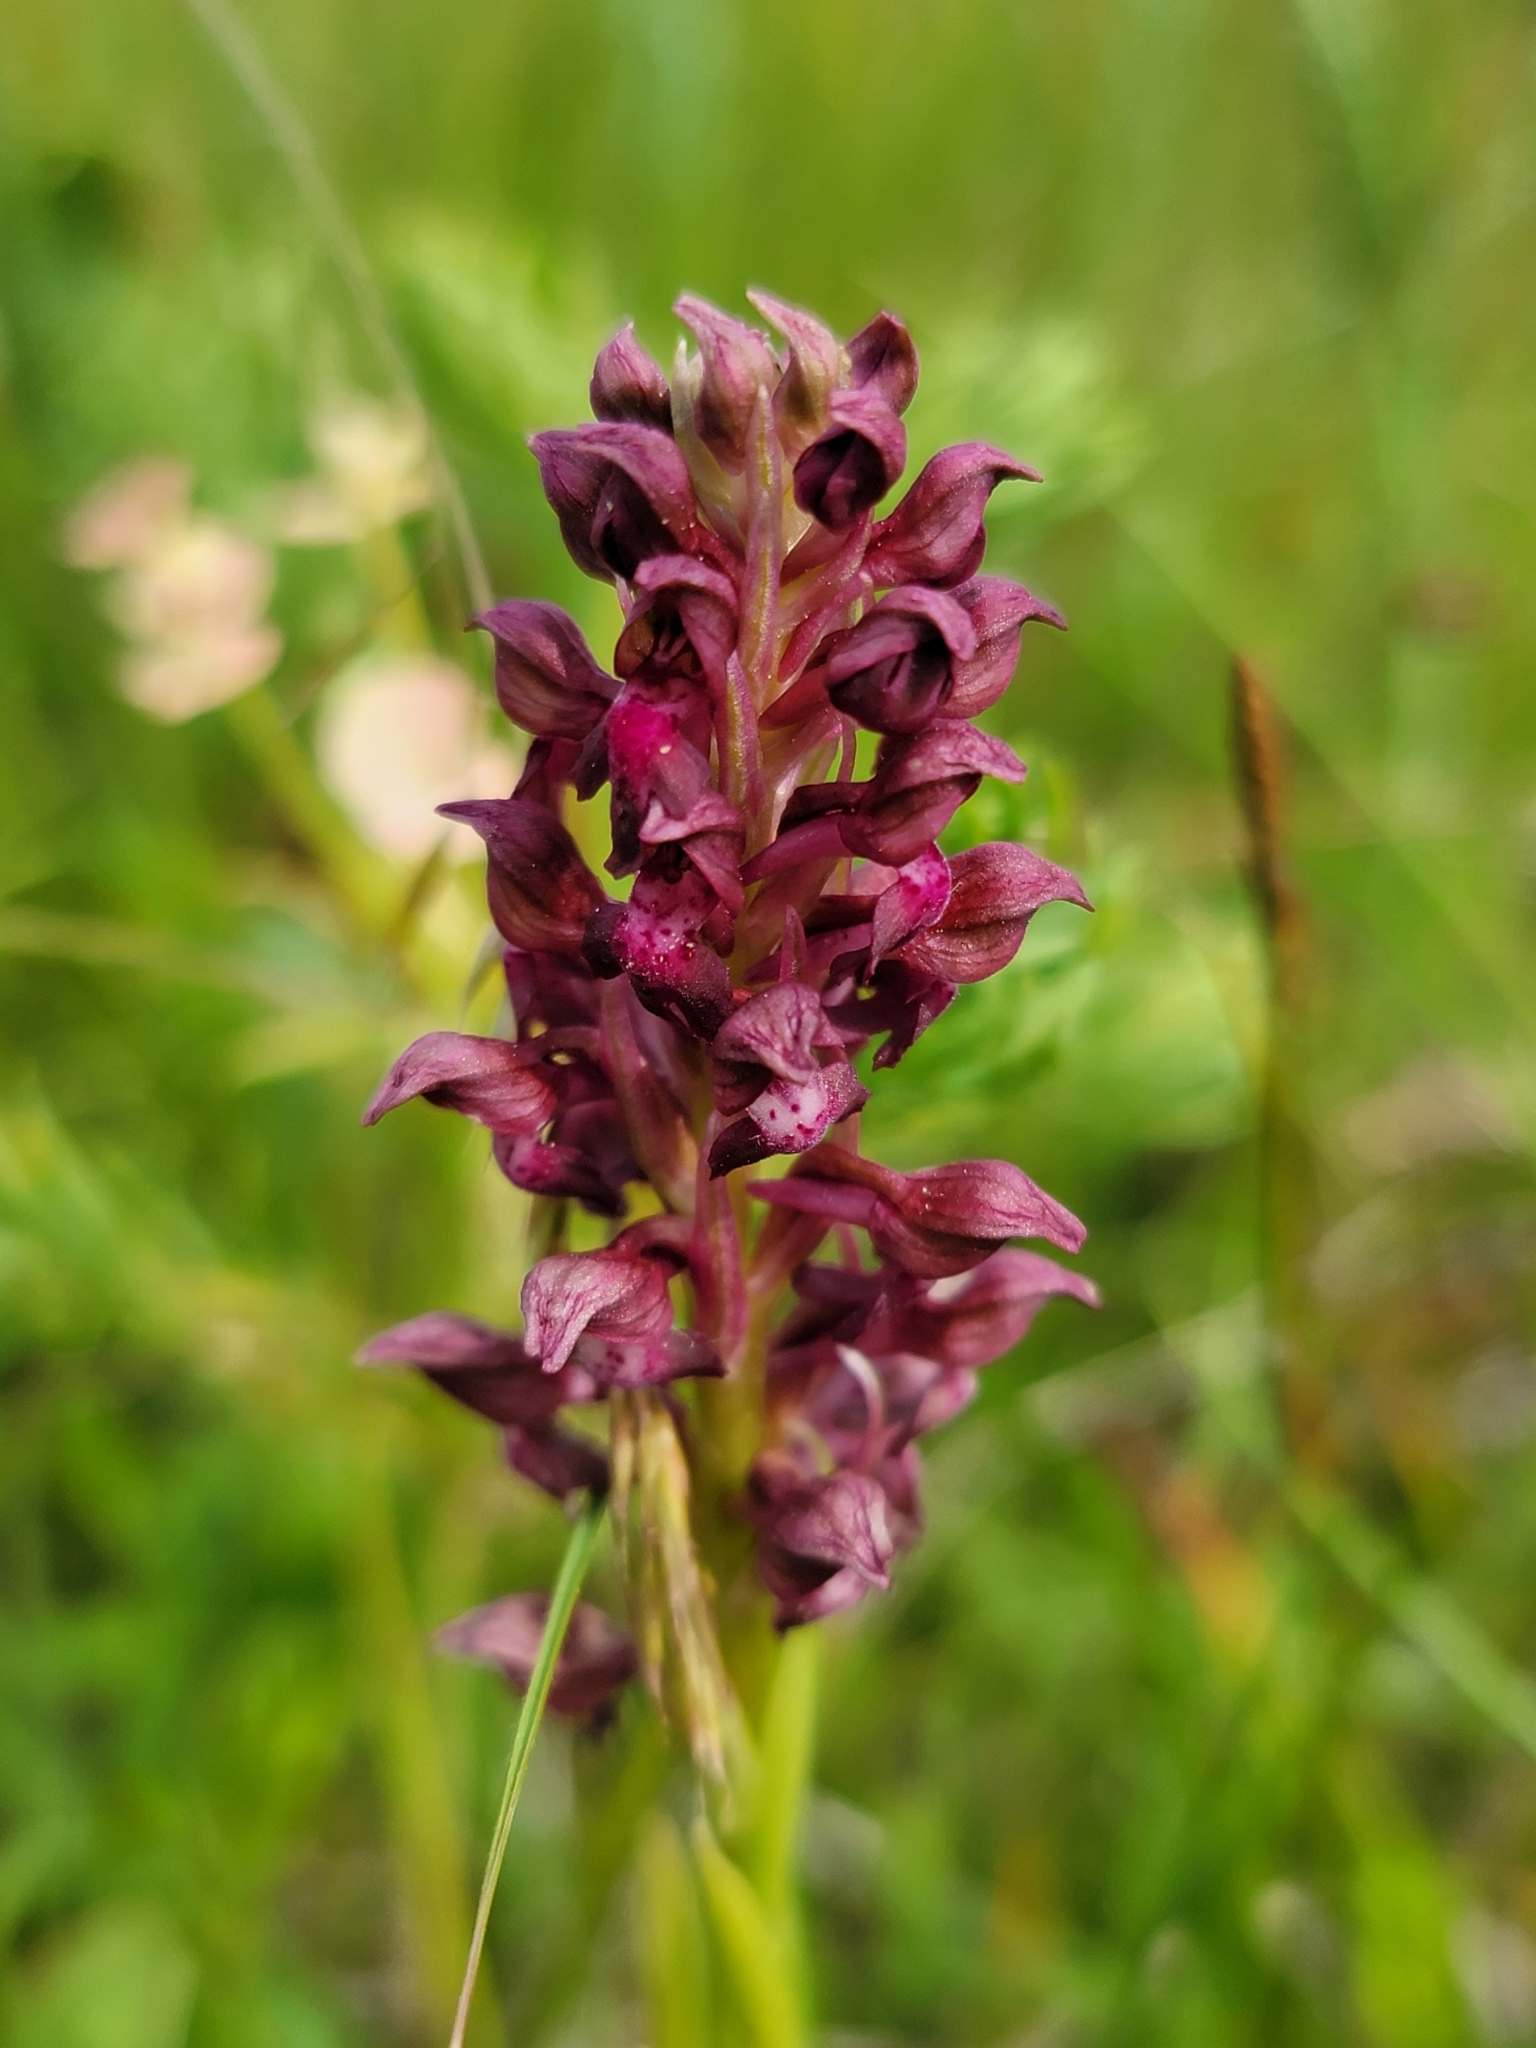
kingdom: Plantae
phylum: Tracheophyta
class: Liliopsida
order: Asparagales
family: Orchidaceae
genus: Anacamptis
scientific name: Anacamptis coriophora
